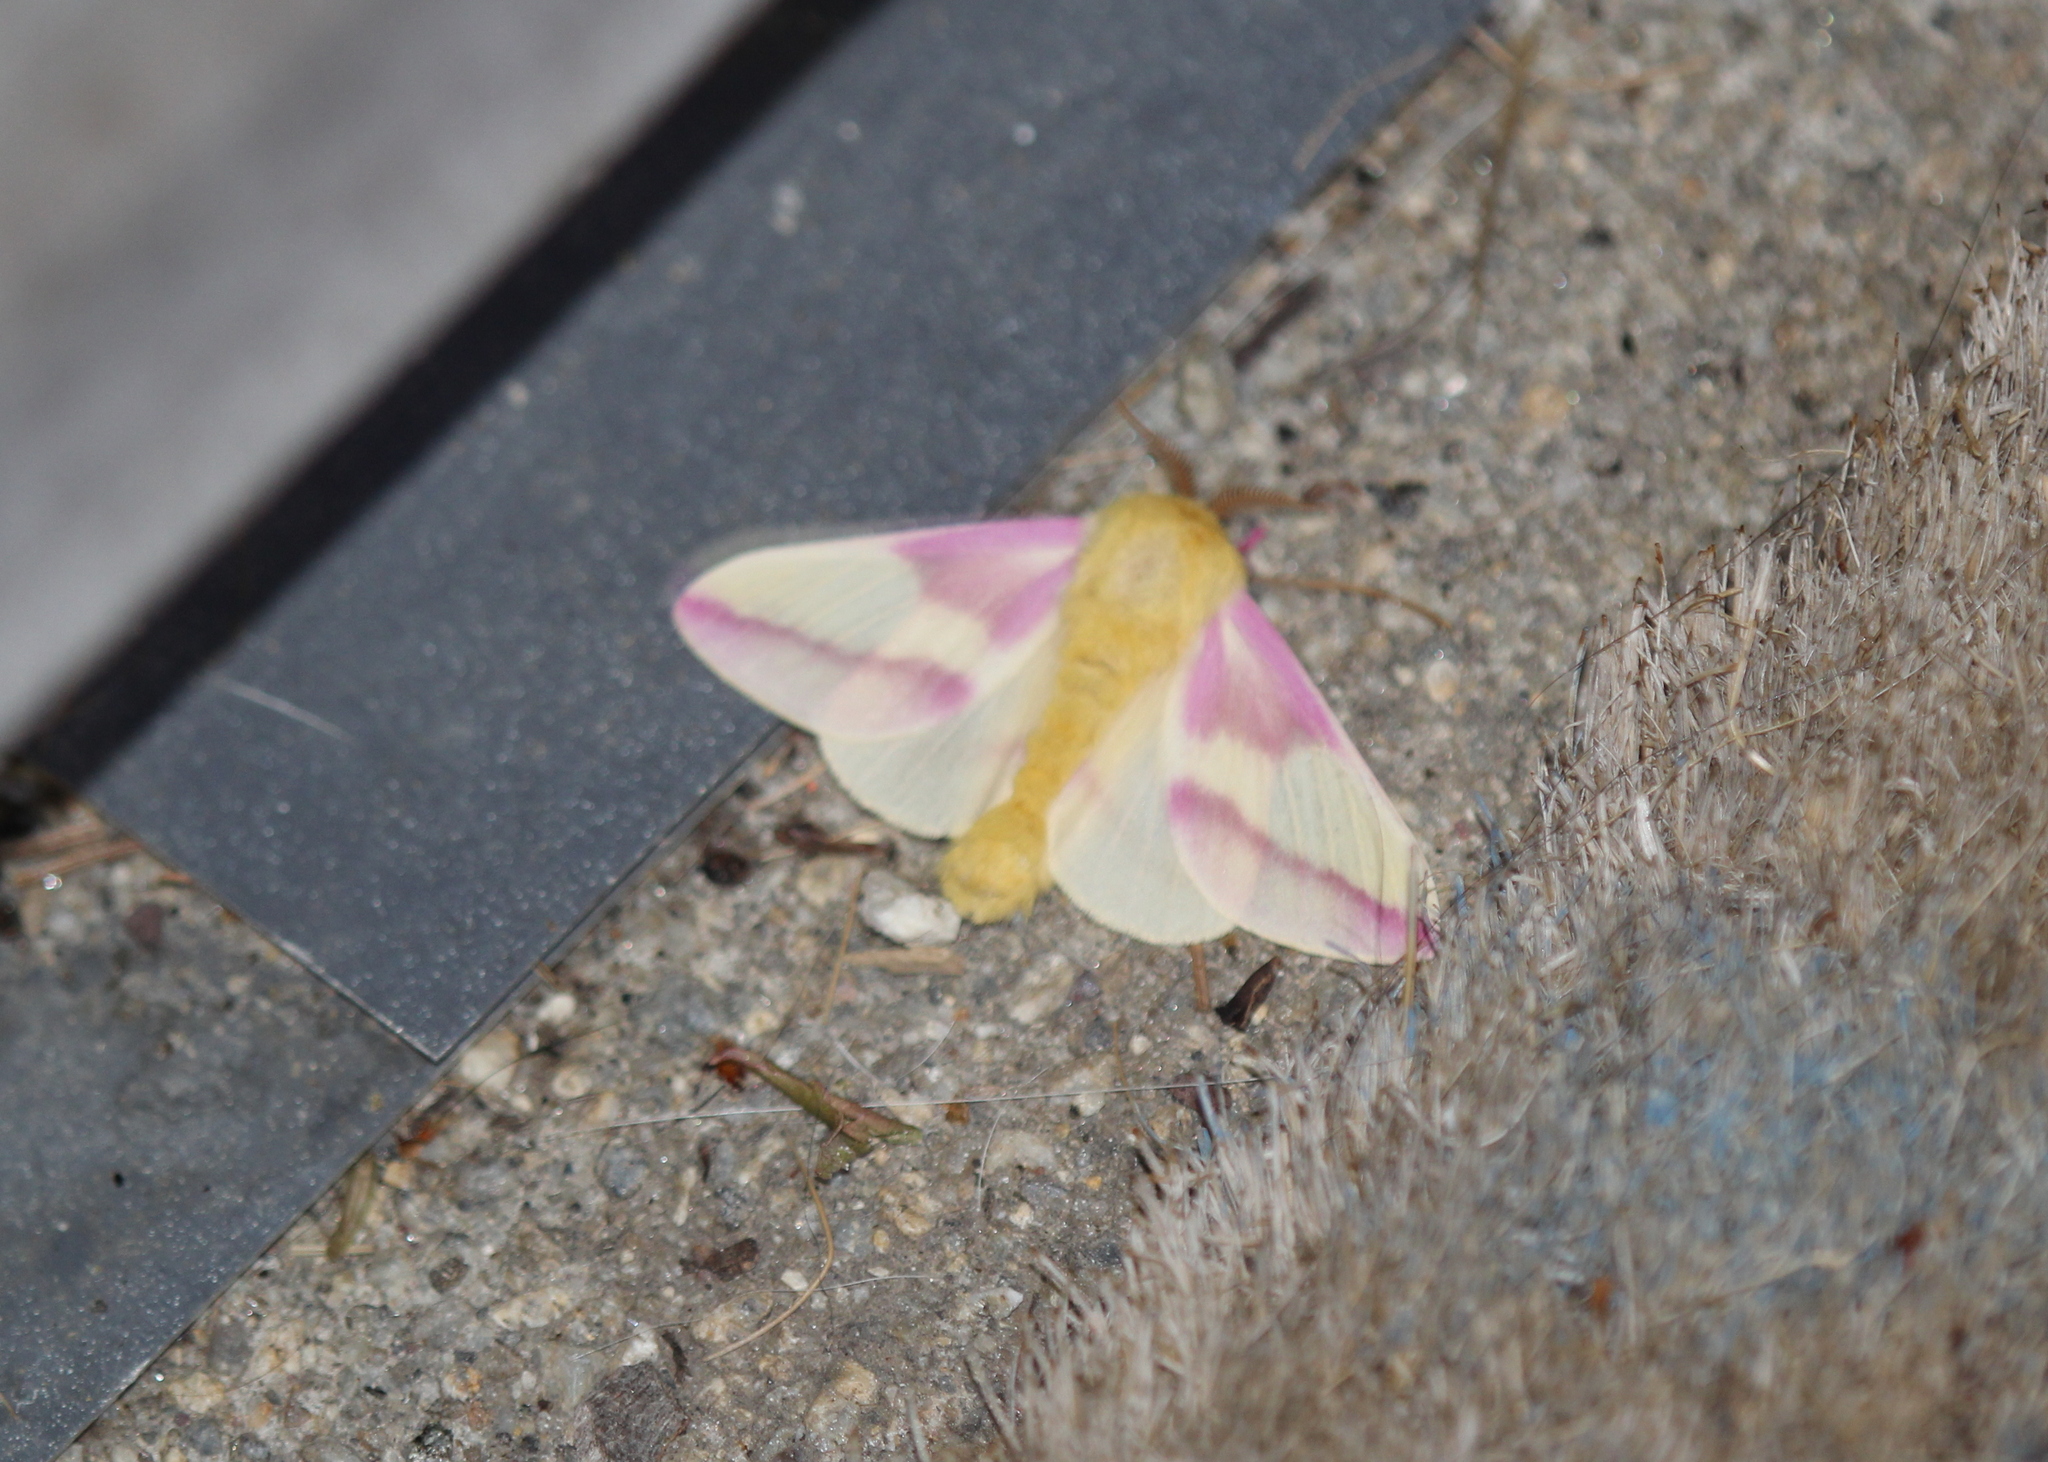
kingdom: Animalia
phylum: Arthropoda
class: Insecta
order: Lepidoptera
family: Saturniidae
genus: Dryocampa
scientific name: Dryocampa rubicunda
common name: Rosy maple moth
